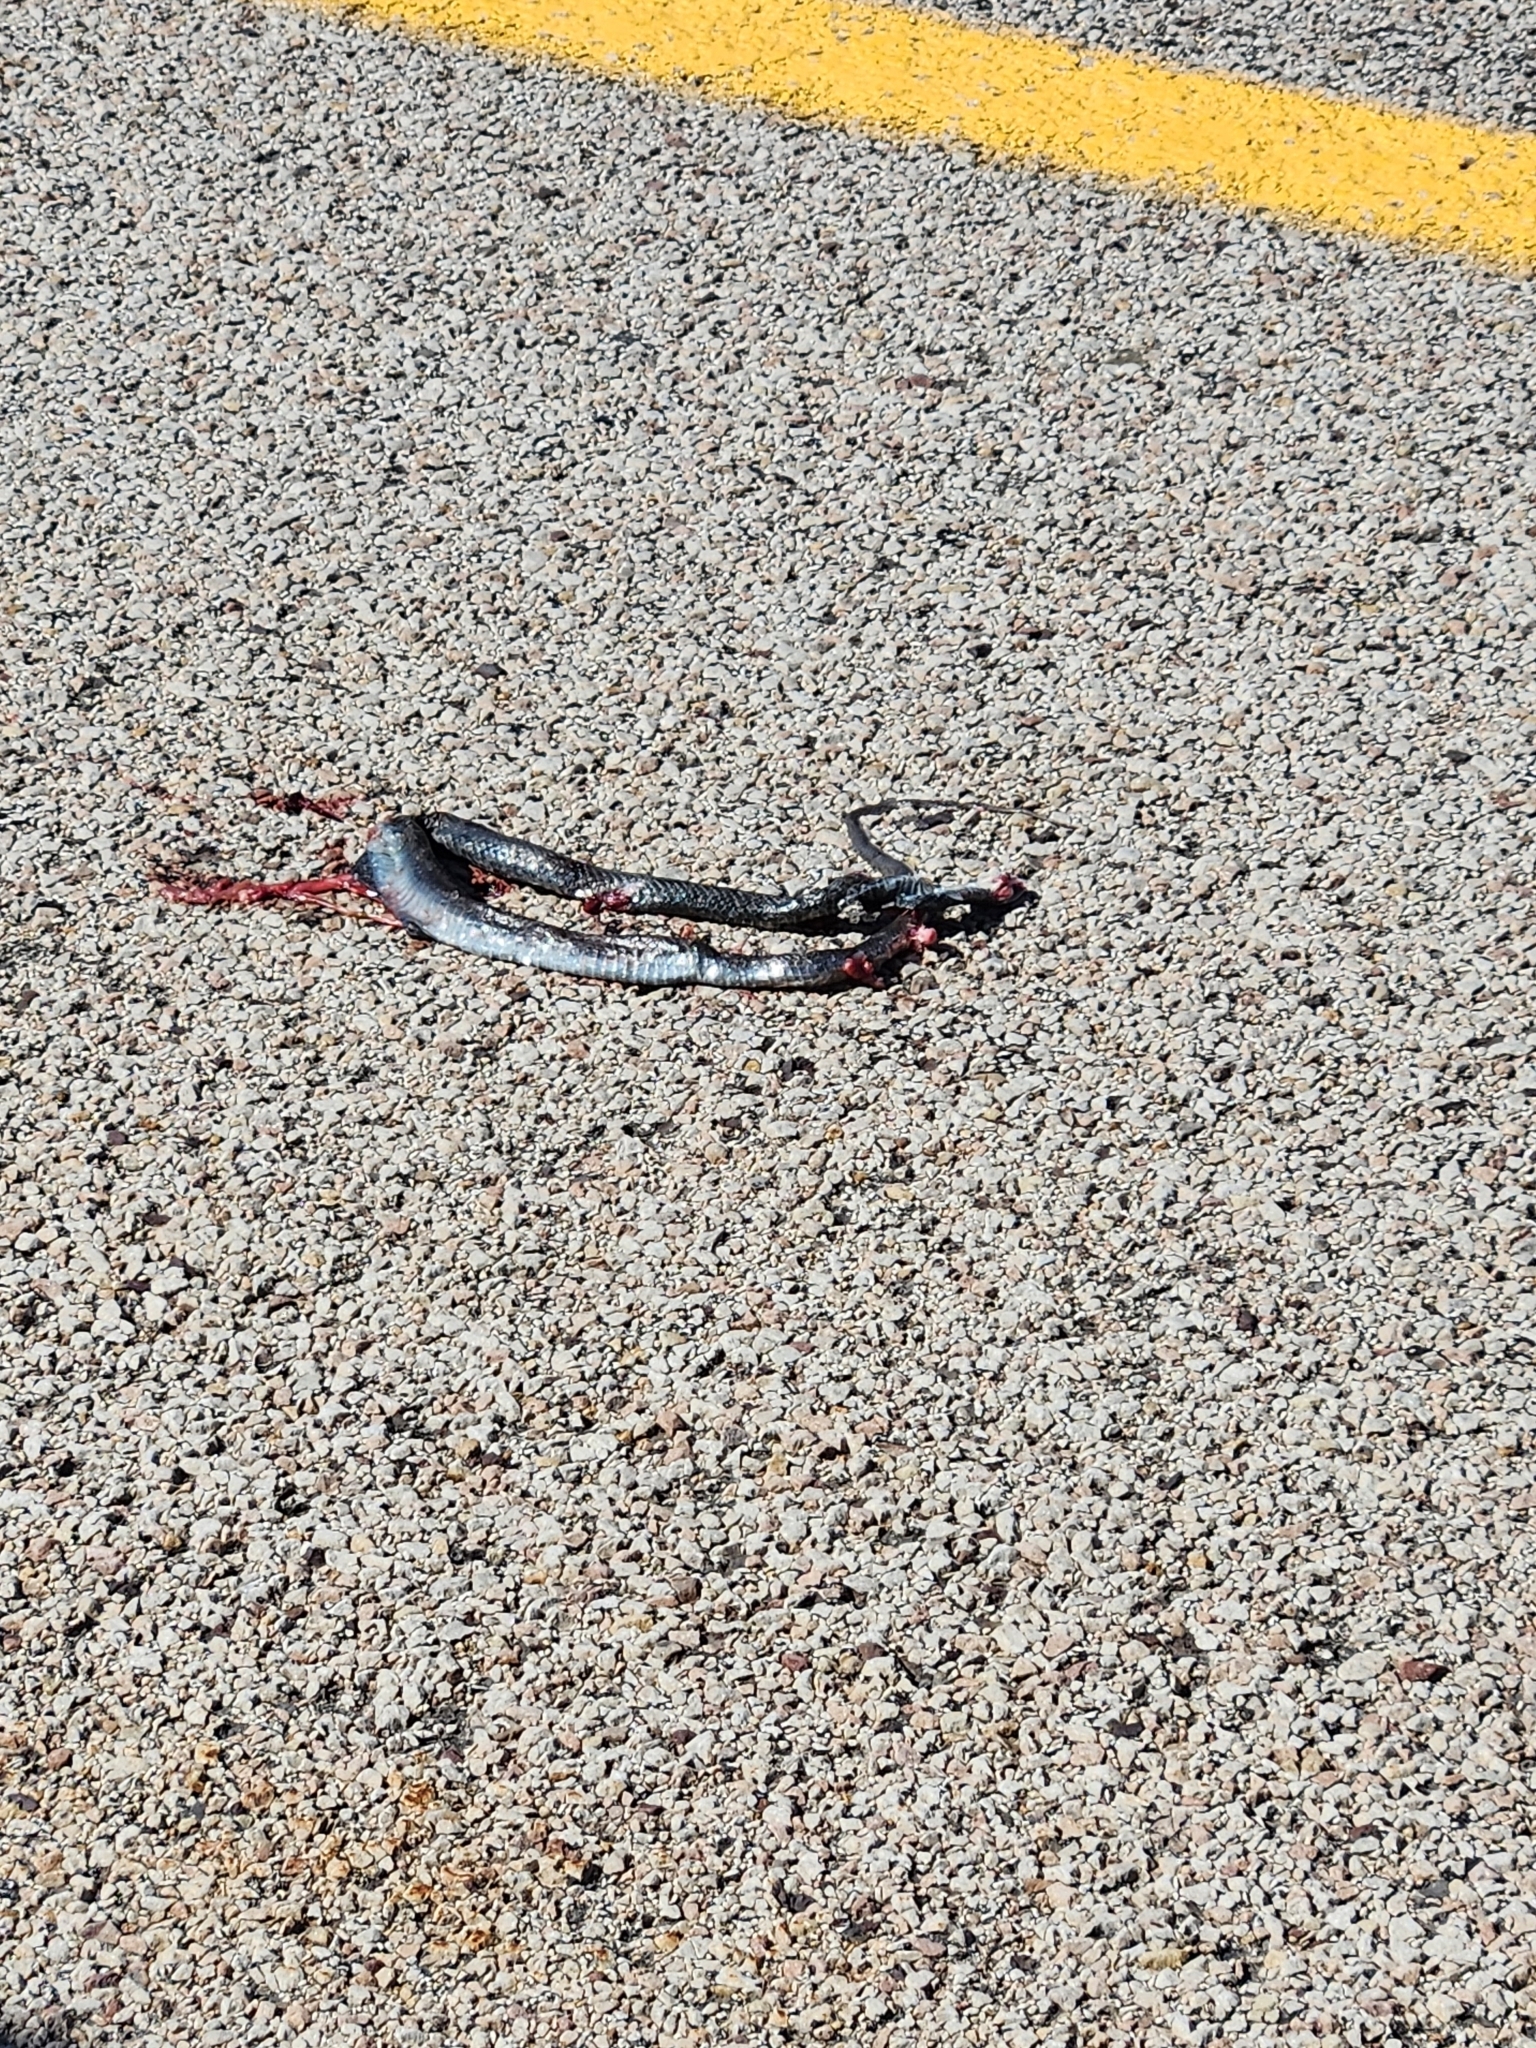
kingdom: Animalia
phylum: Chordata
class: Squamata
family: Colubridae
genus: Coluber
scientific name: Coluber constrictor
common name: Eastern racer
